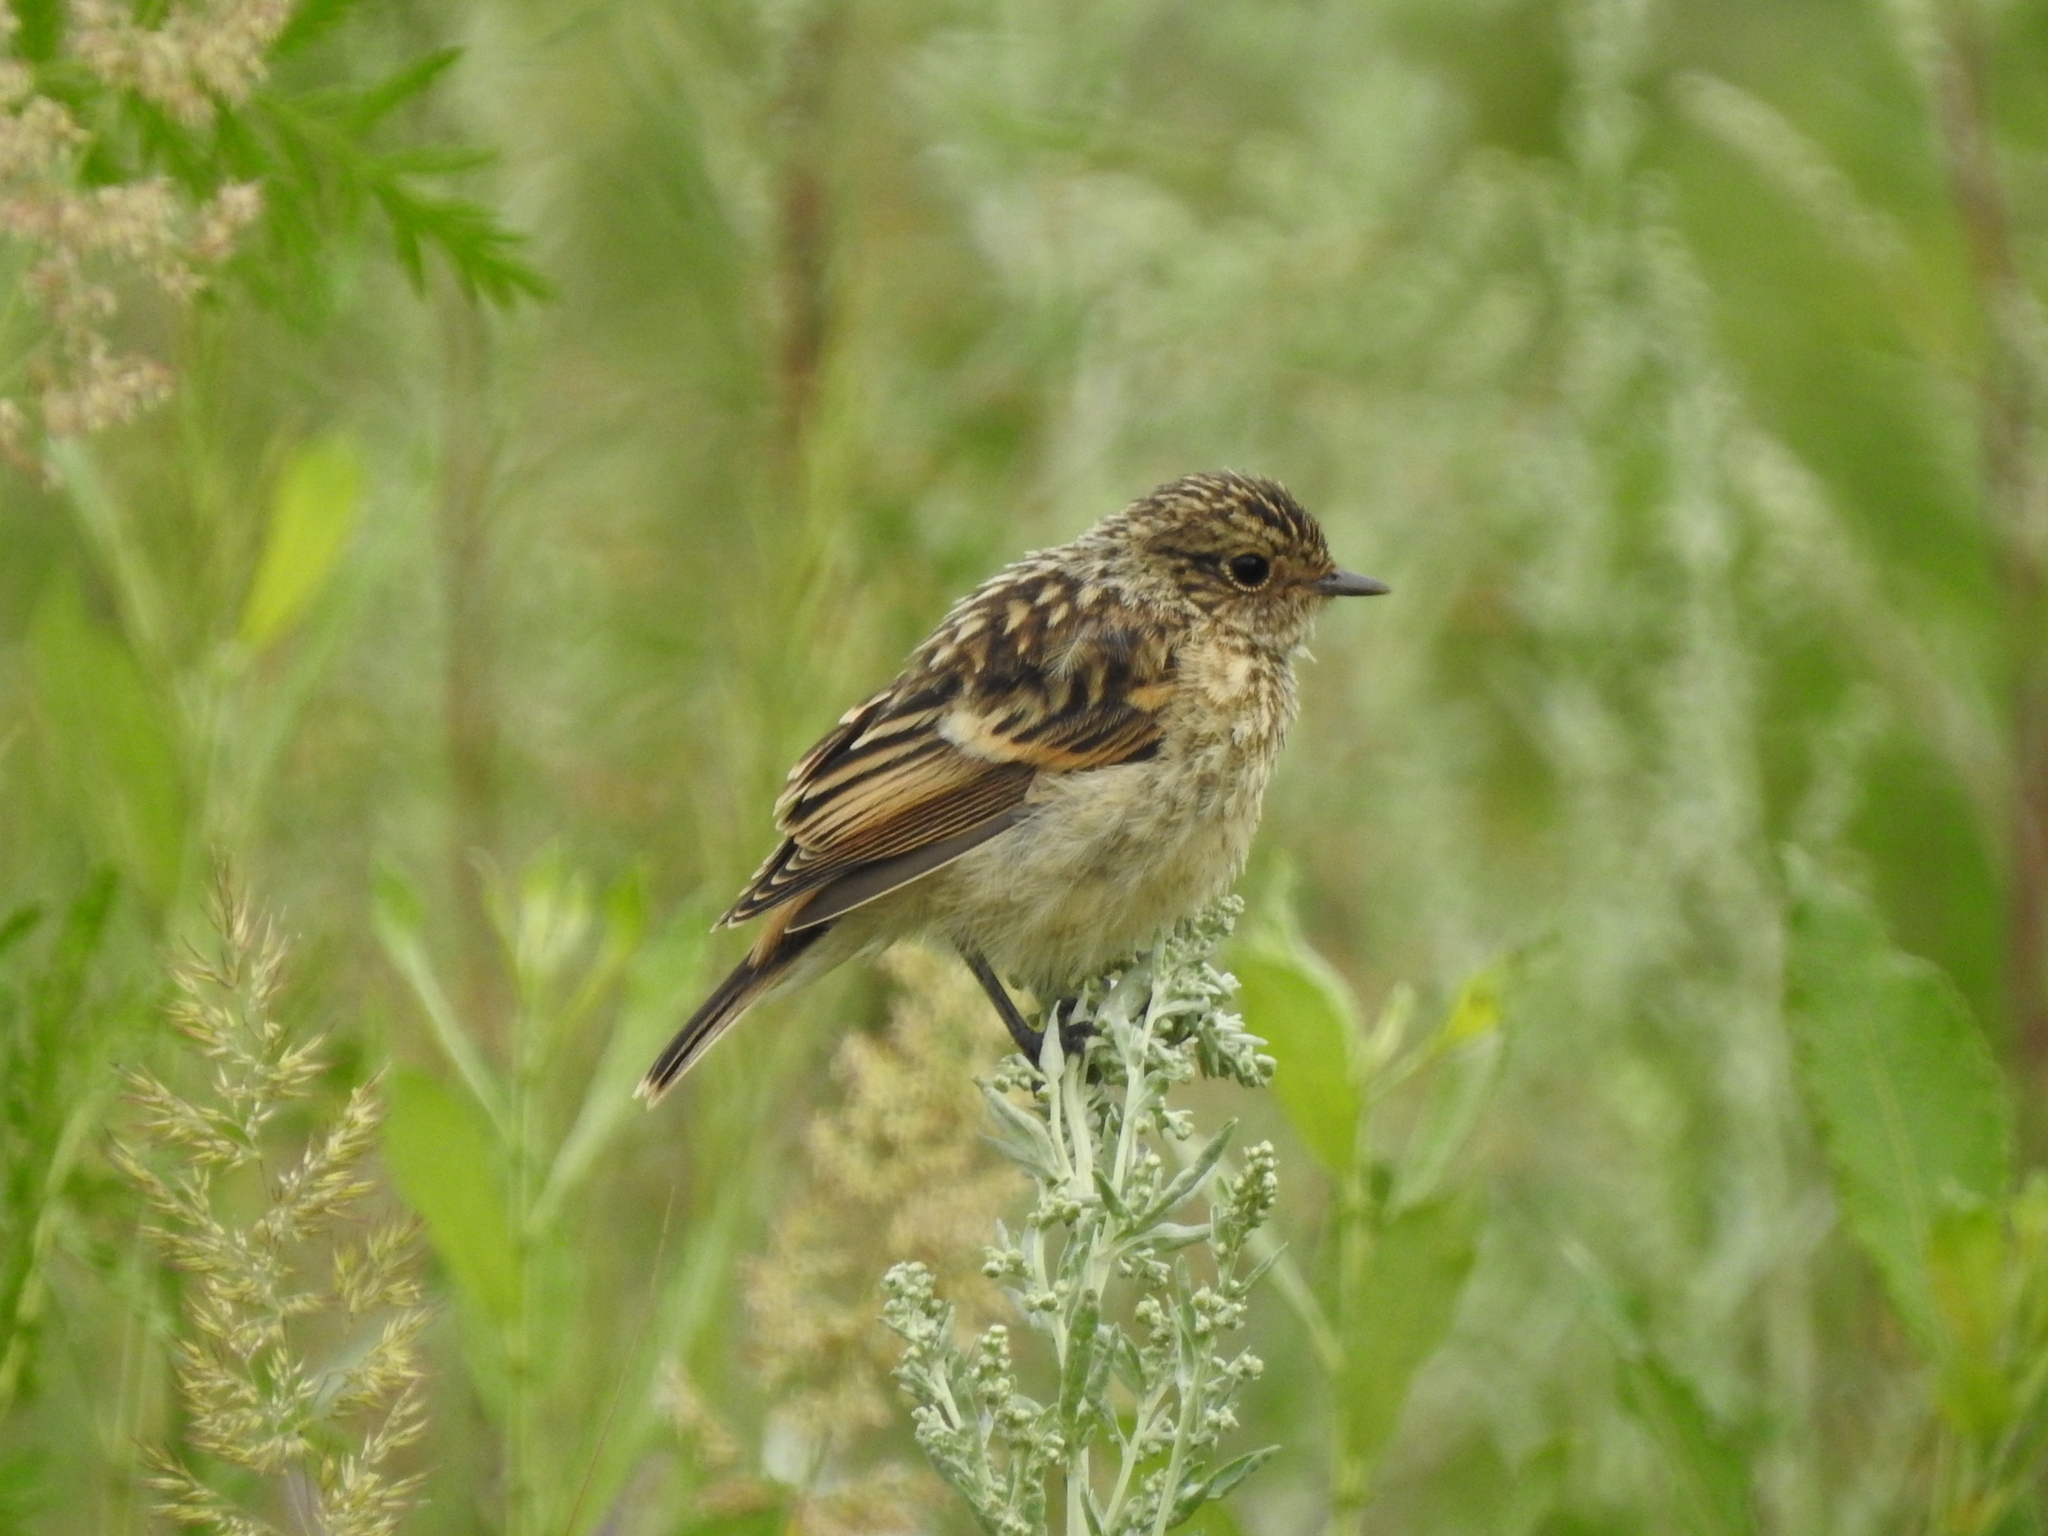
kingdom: Animalia
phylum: Chordata
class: Aves
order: Passeriformes
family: Muscicapidae
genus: Saxicola
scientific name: Saxicola maurus
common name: Siberian stonechat
